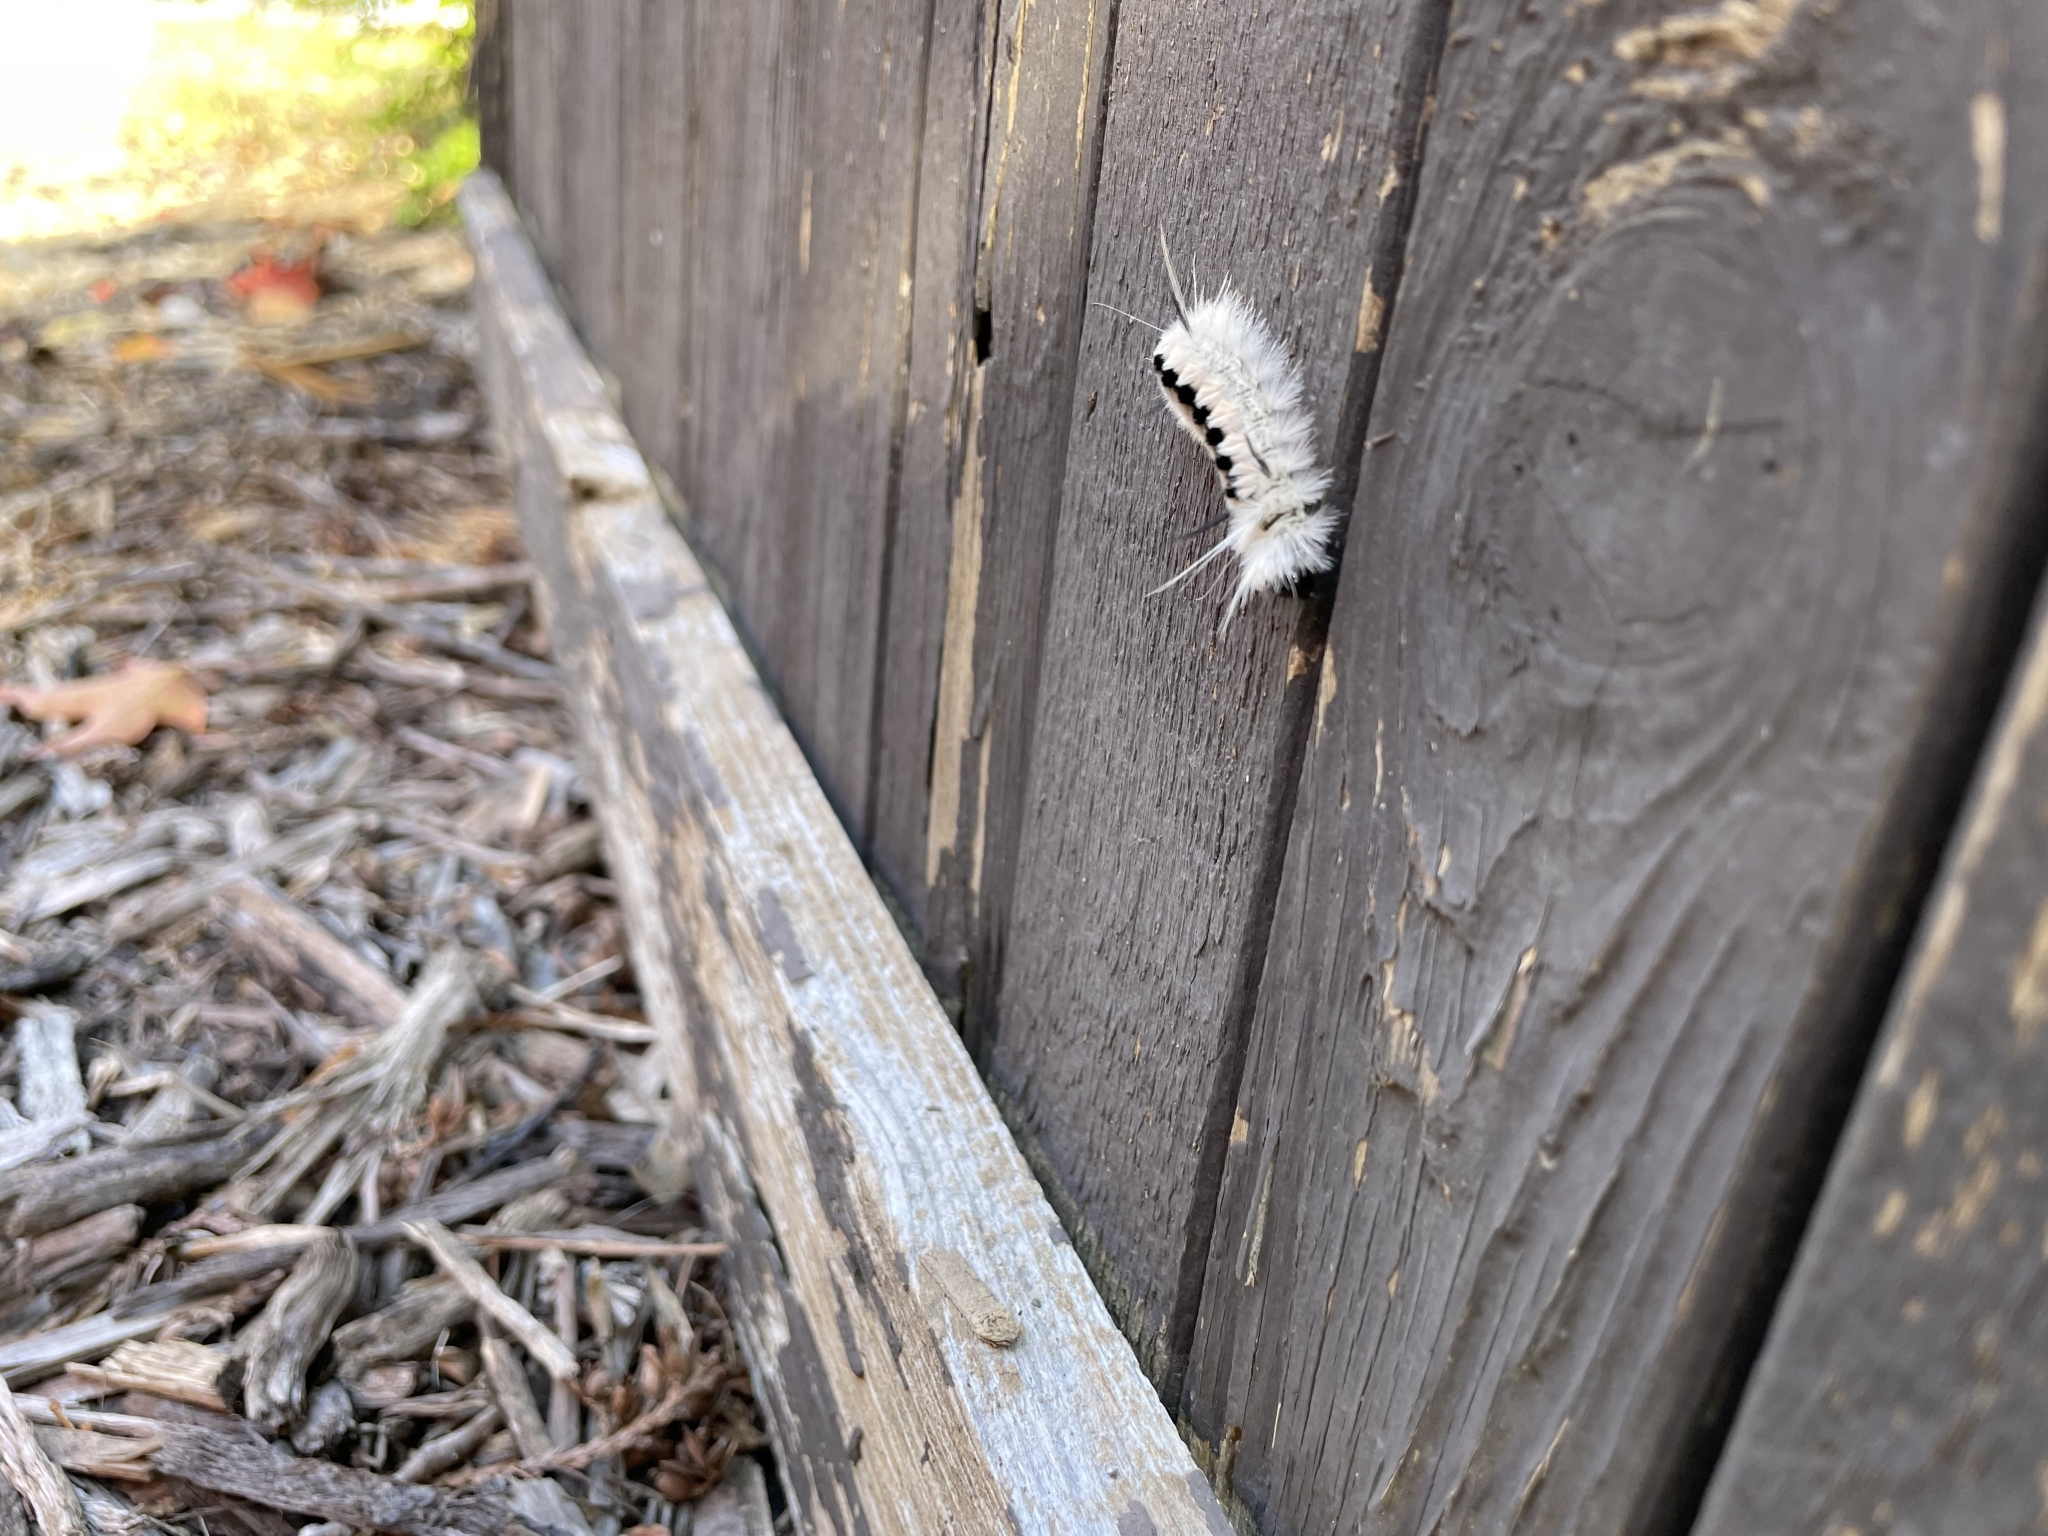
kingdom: Animalia
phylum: Arthropoda
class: Insecta
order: Lepidoptera
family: Erebidae
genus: Lophocampa
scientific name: Lophocampa caryae
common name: Hickory tussock moth
